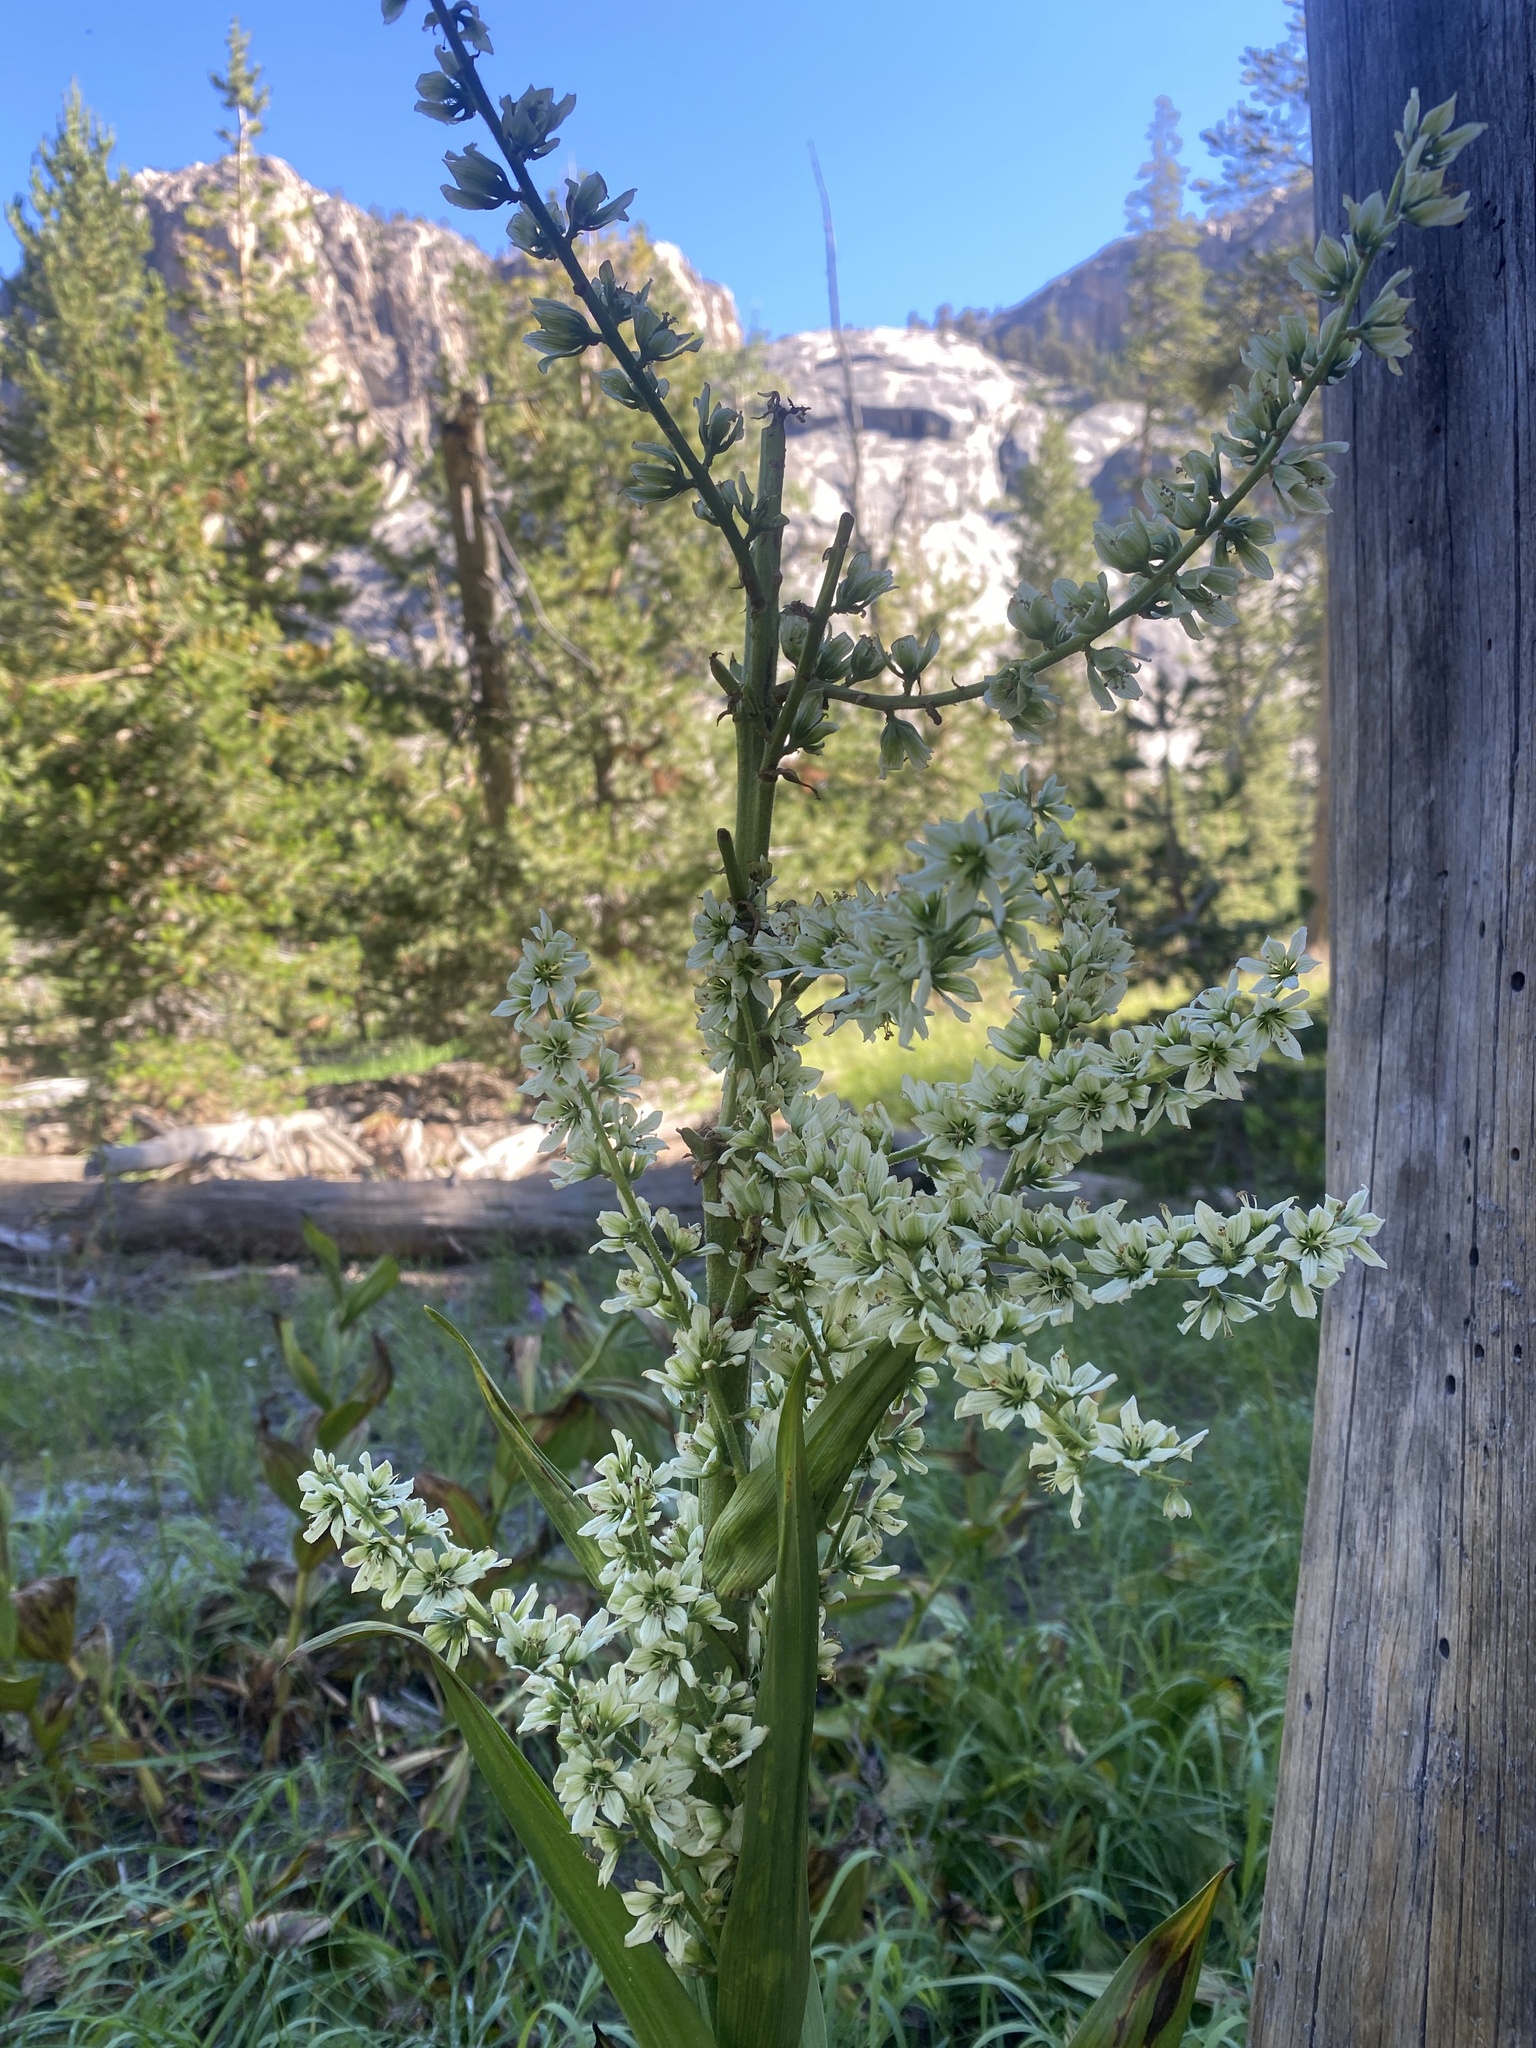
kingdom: Plantae
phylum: Tracheophyta
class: Liliopsida
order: Liliales
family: Melanthiaceae
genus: Veratrum
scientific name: Veratrum californicum
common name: California veratrum
